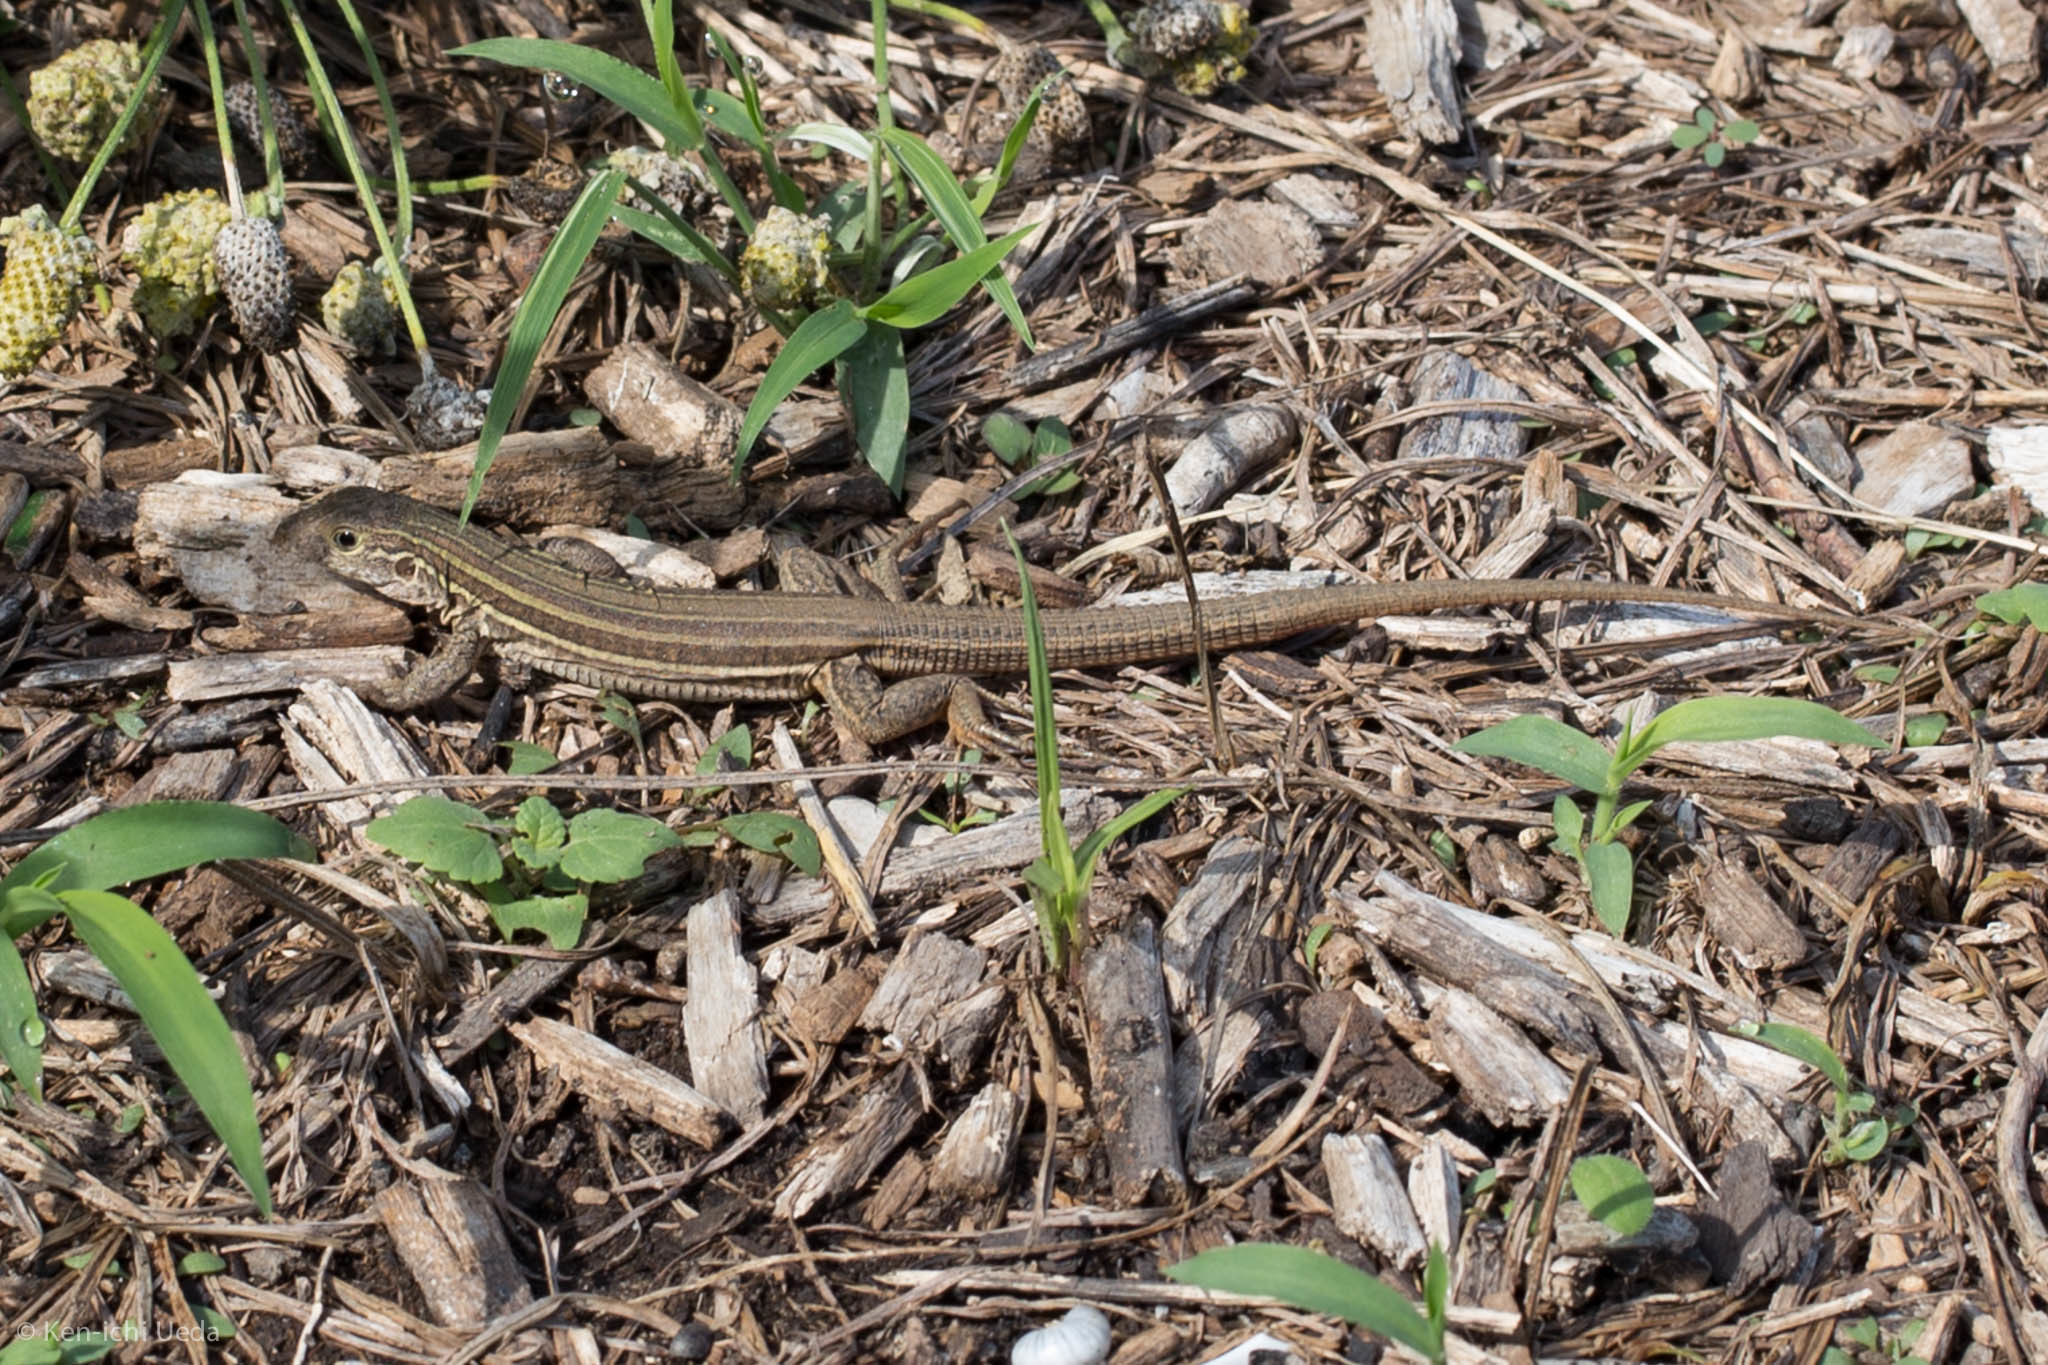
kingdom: Animalia
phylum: Chordata
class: Squamata
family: Teiidae
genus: Aspidoscelis
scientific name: Aspidoscelis gularis
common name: Eastern spotted whiptail
